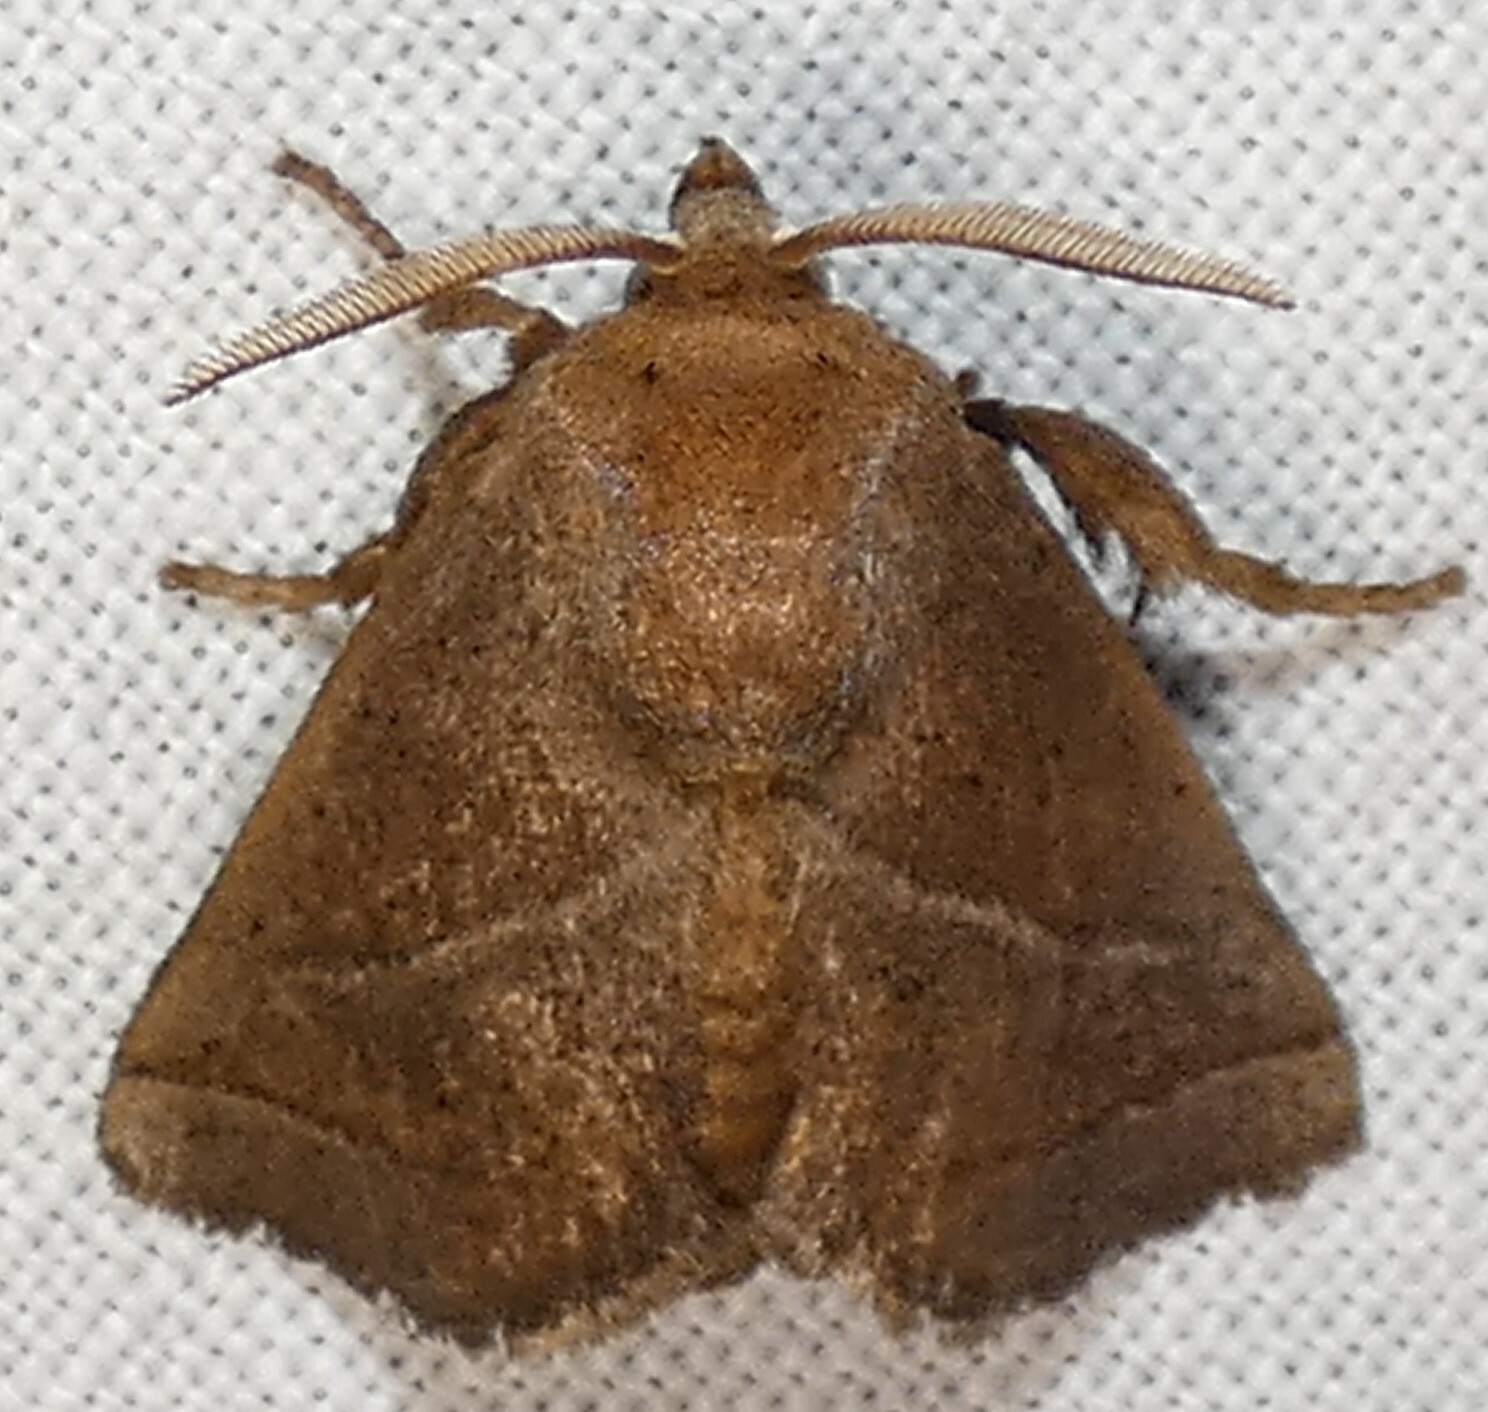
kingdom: Animalia
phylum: Arthropoda
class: Insecta
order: Lepidoptera
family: Limacodidae
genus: Natada
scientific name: Natada nasoni
